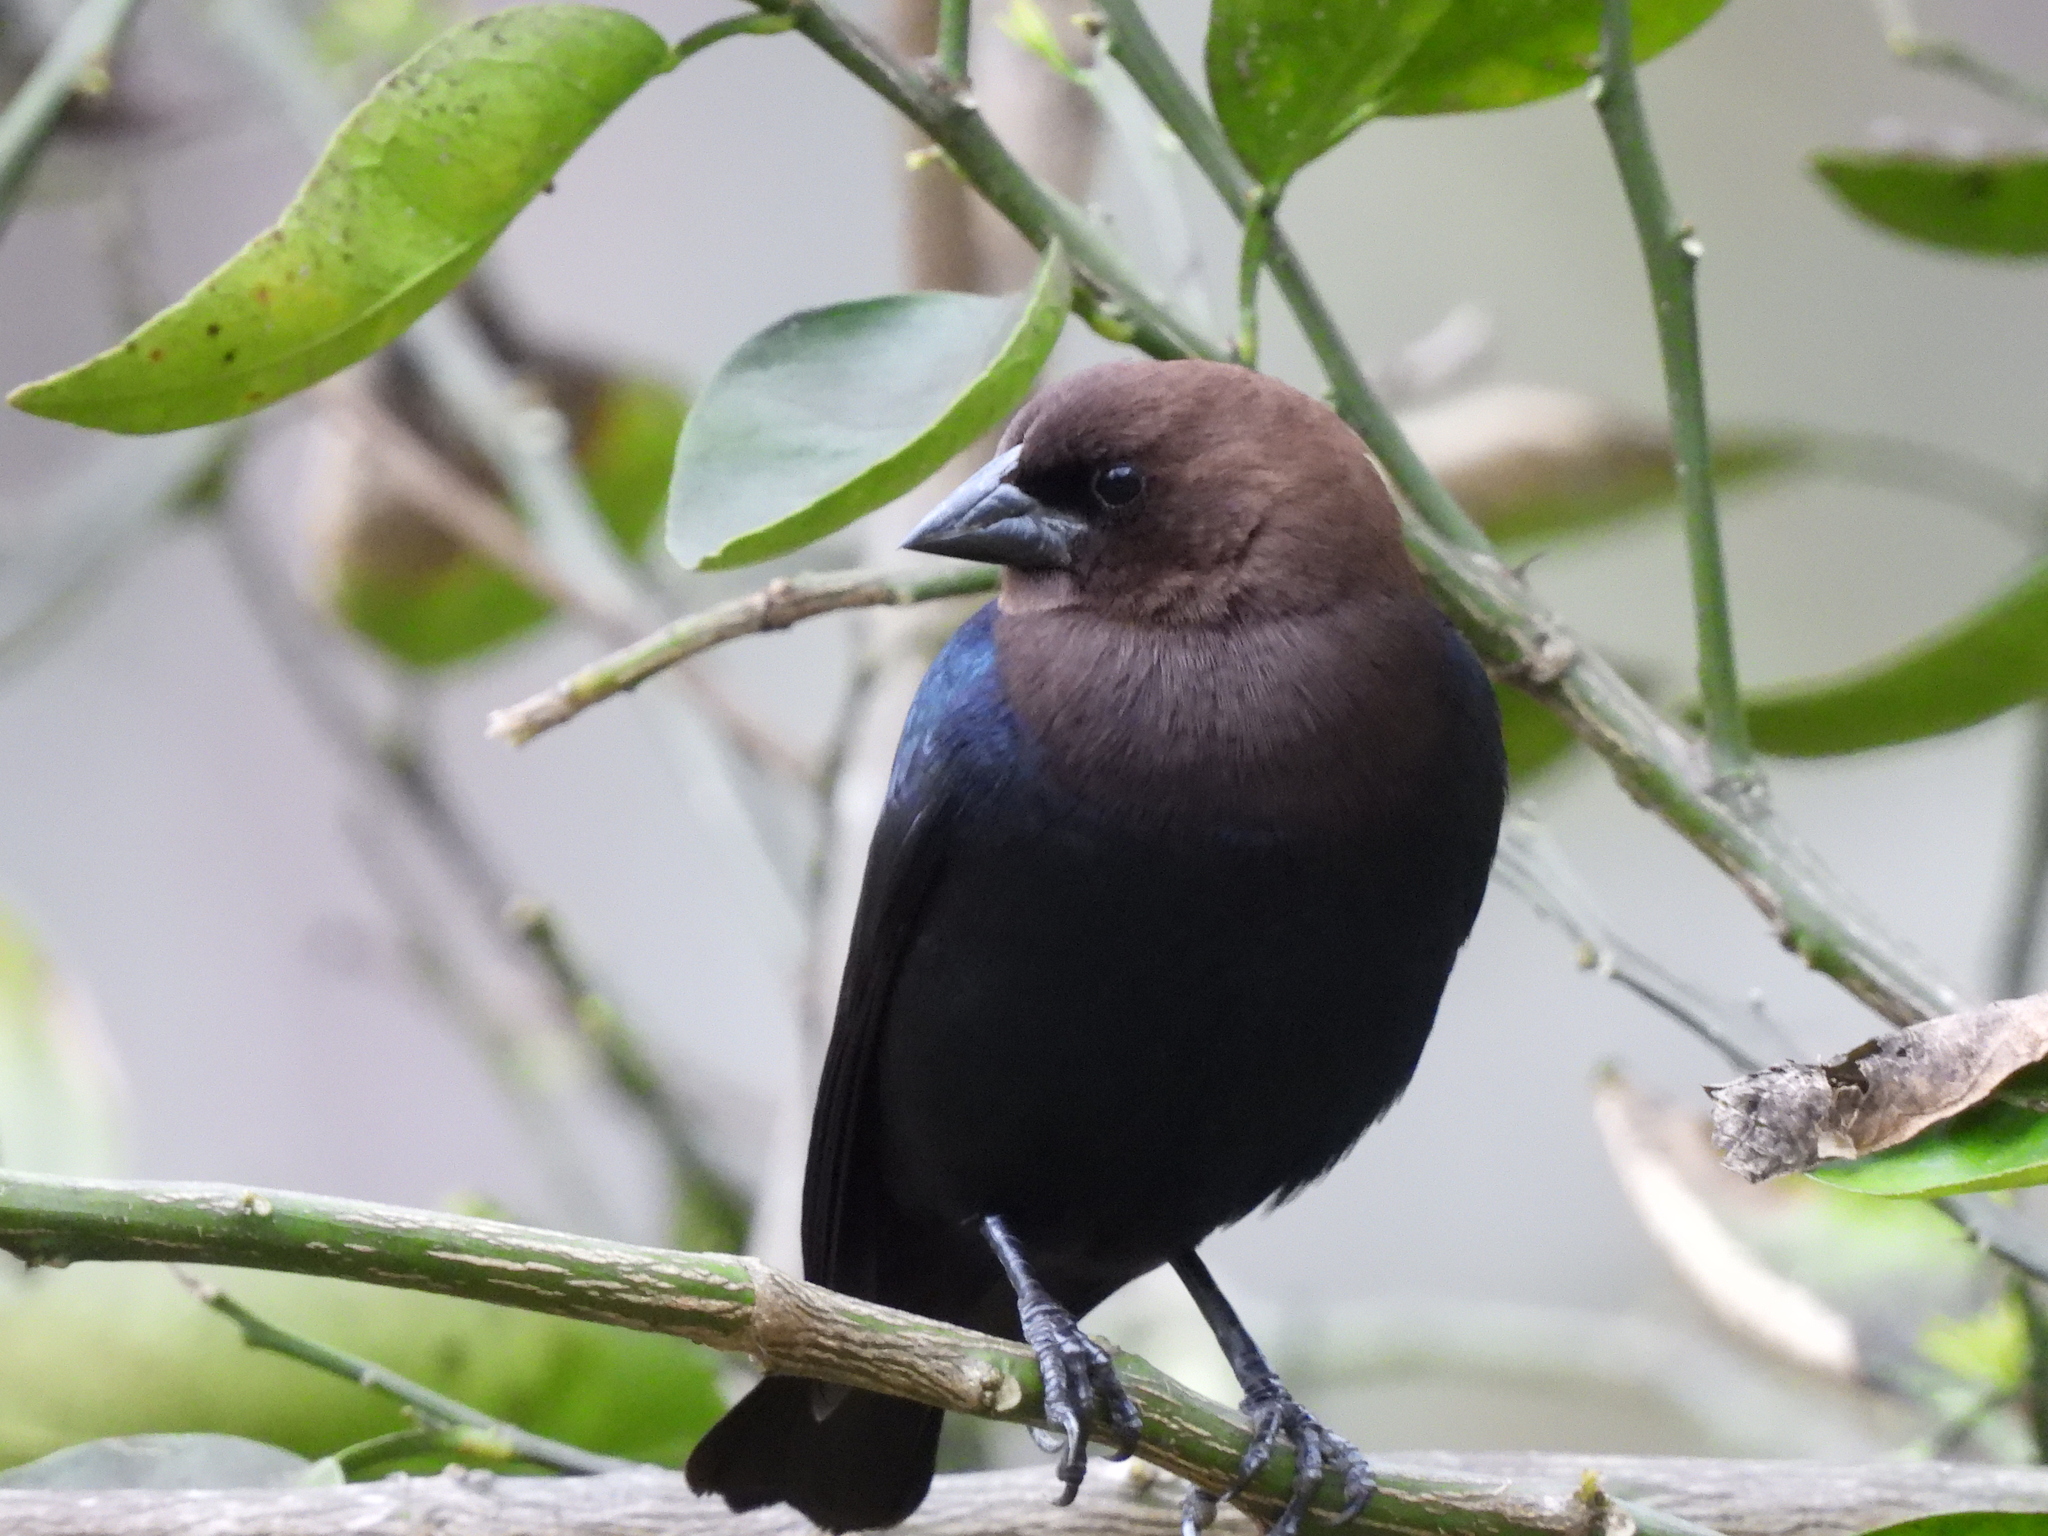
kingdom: Animalia
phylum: Chordata
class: Aves
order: Passeriformes
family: Icteridae
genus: Molothrus
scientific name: Molothrus ater
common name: Brown-headed cowbird
